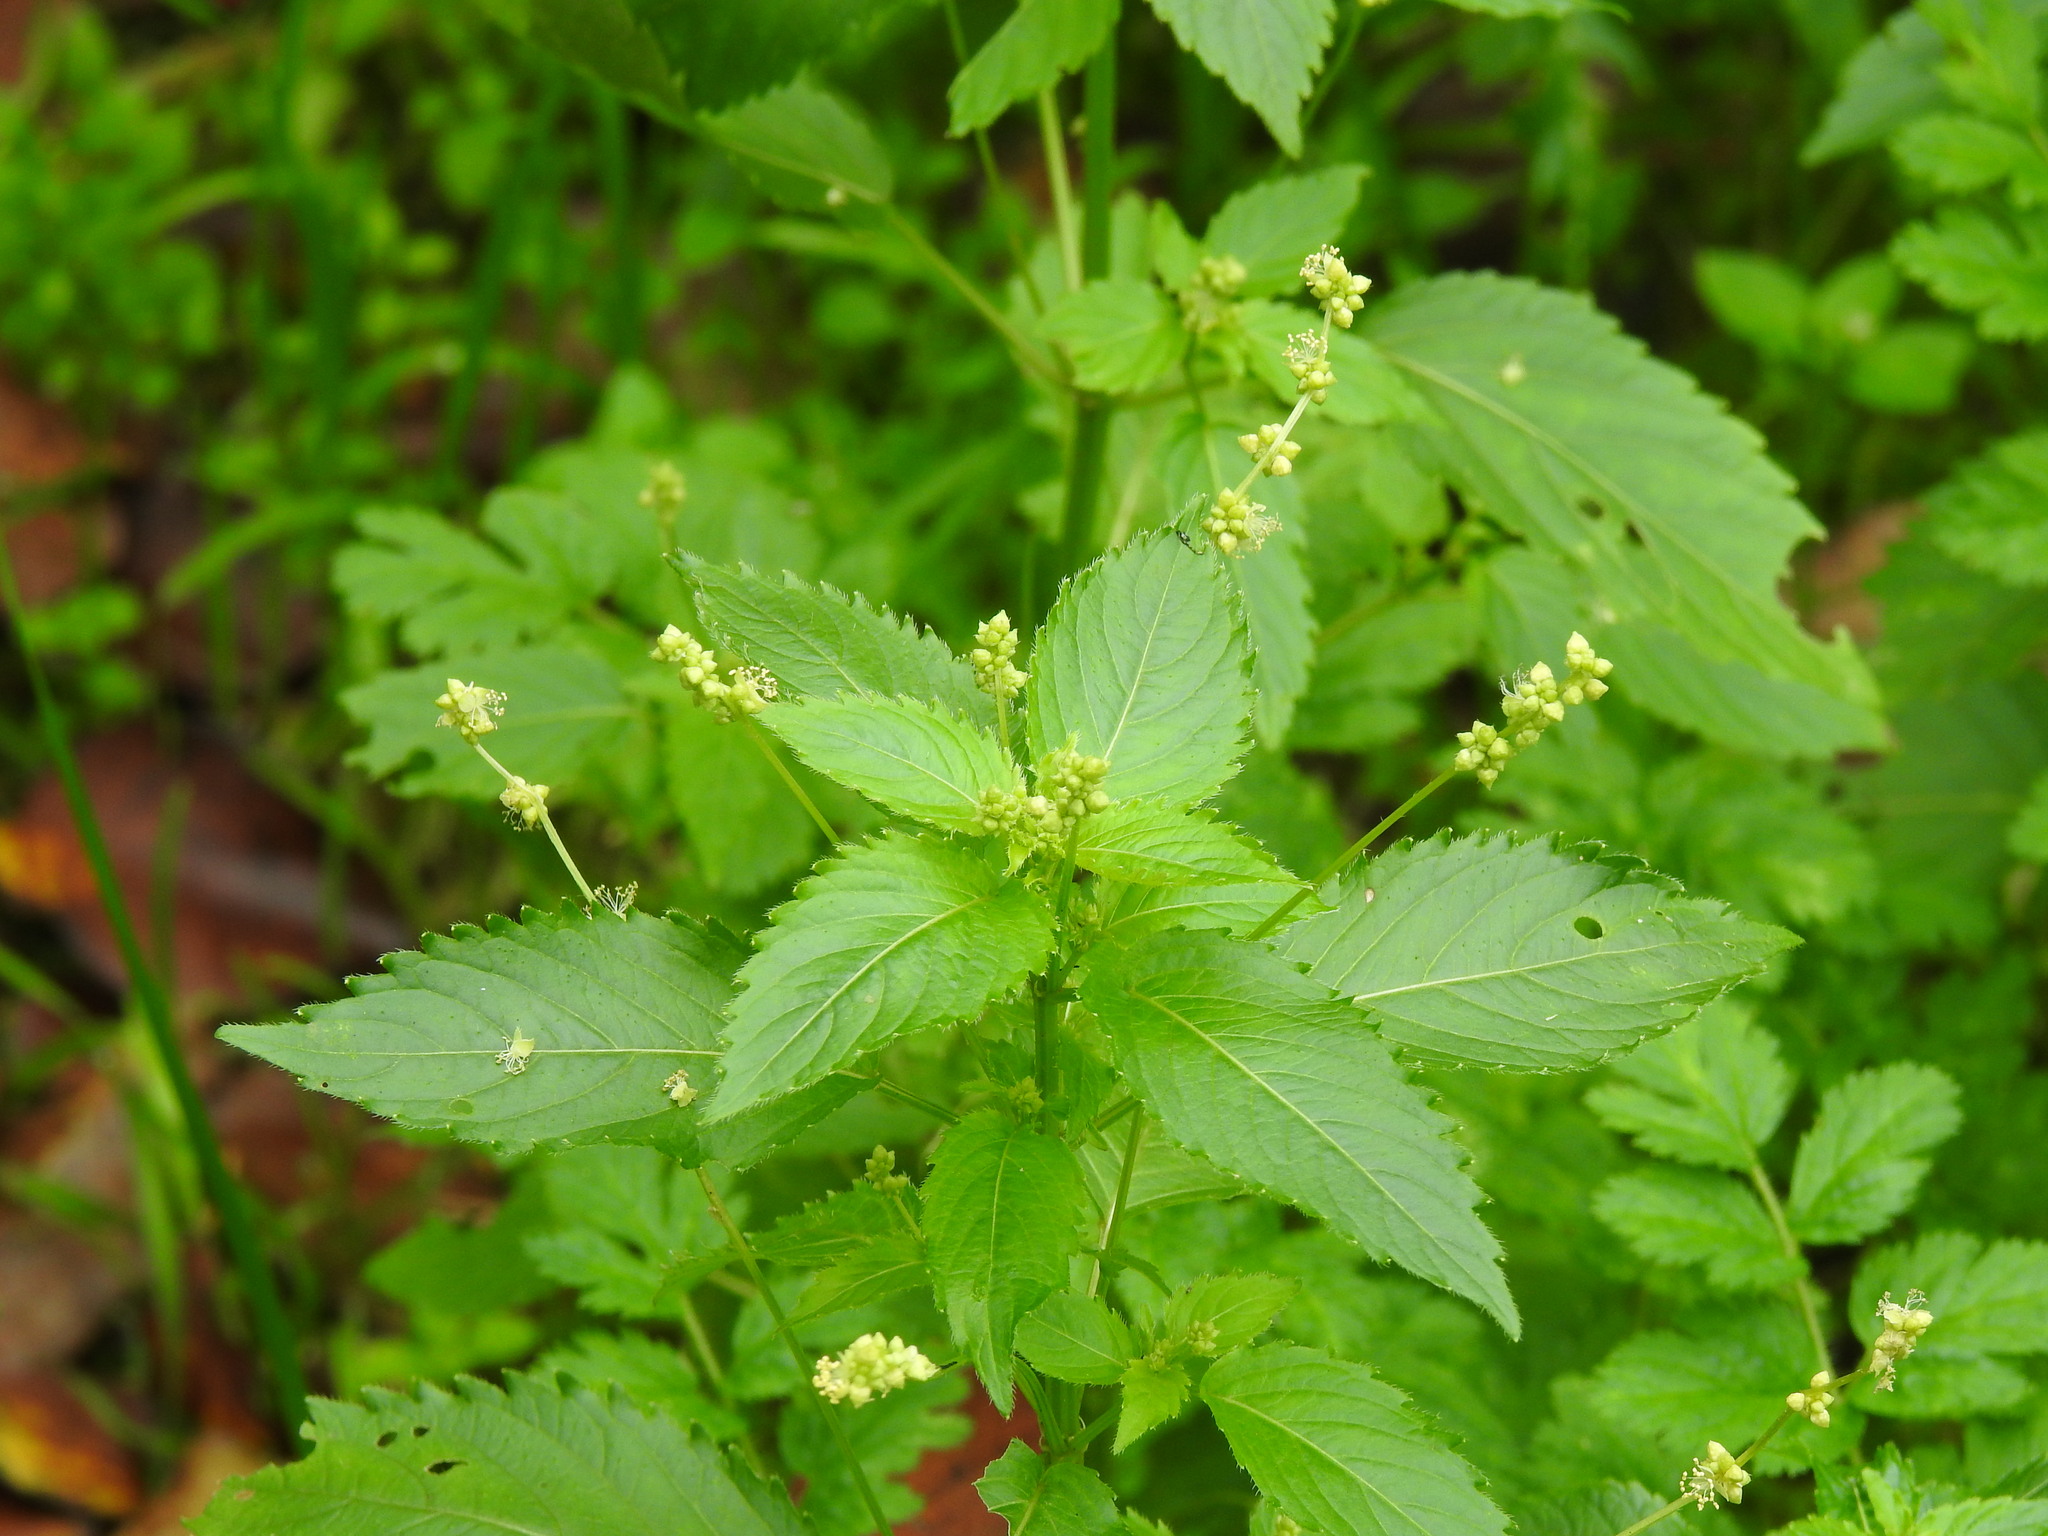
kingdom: Plantae
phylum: Tracheophyta
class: Magnoliopsida
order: Malpighiales
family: Euphorbiaceae
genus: Mercurialis
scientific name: Mercurialis annua
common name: Annual mercury
